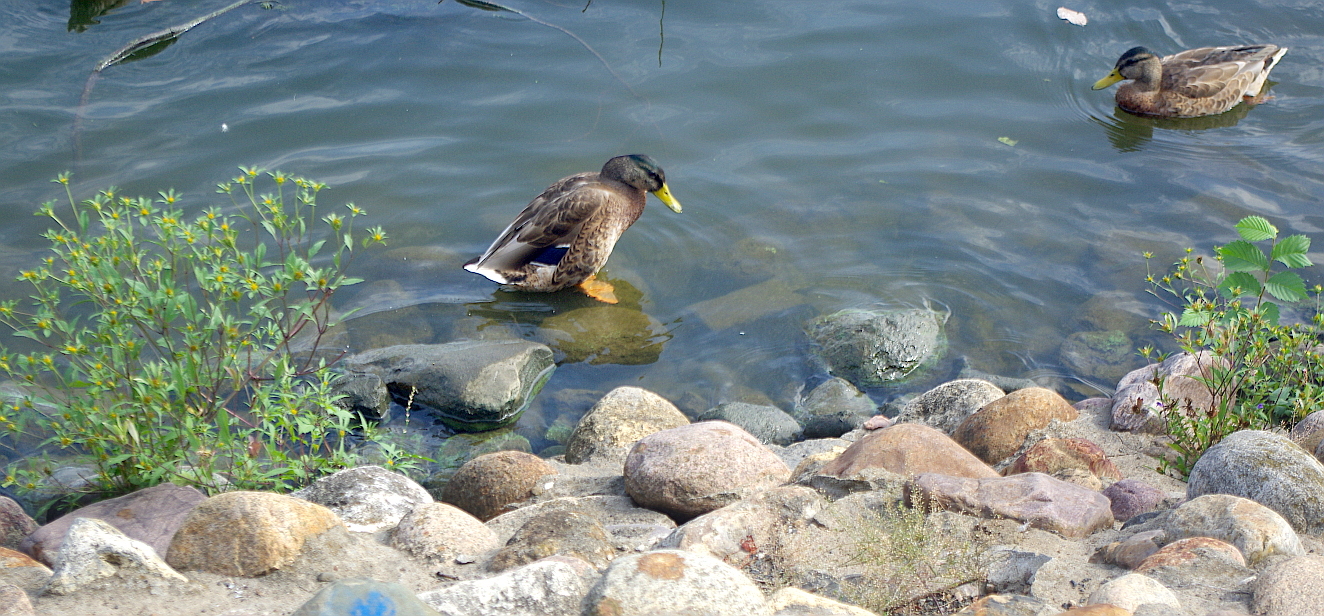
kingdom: Animalia
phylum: Chordata
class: Aves
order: Anseriformes
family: Anatidae
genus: Anas
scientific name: Anas platyrhynchos
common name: Mallard
